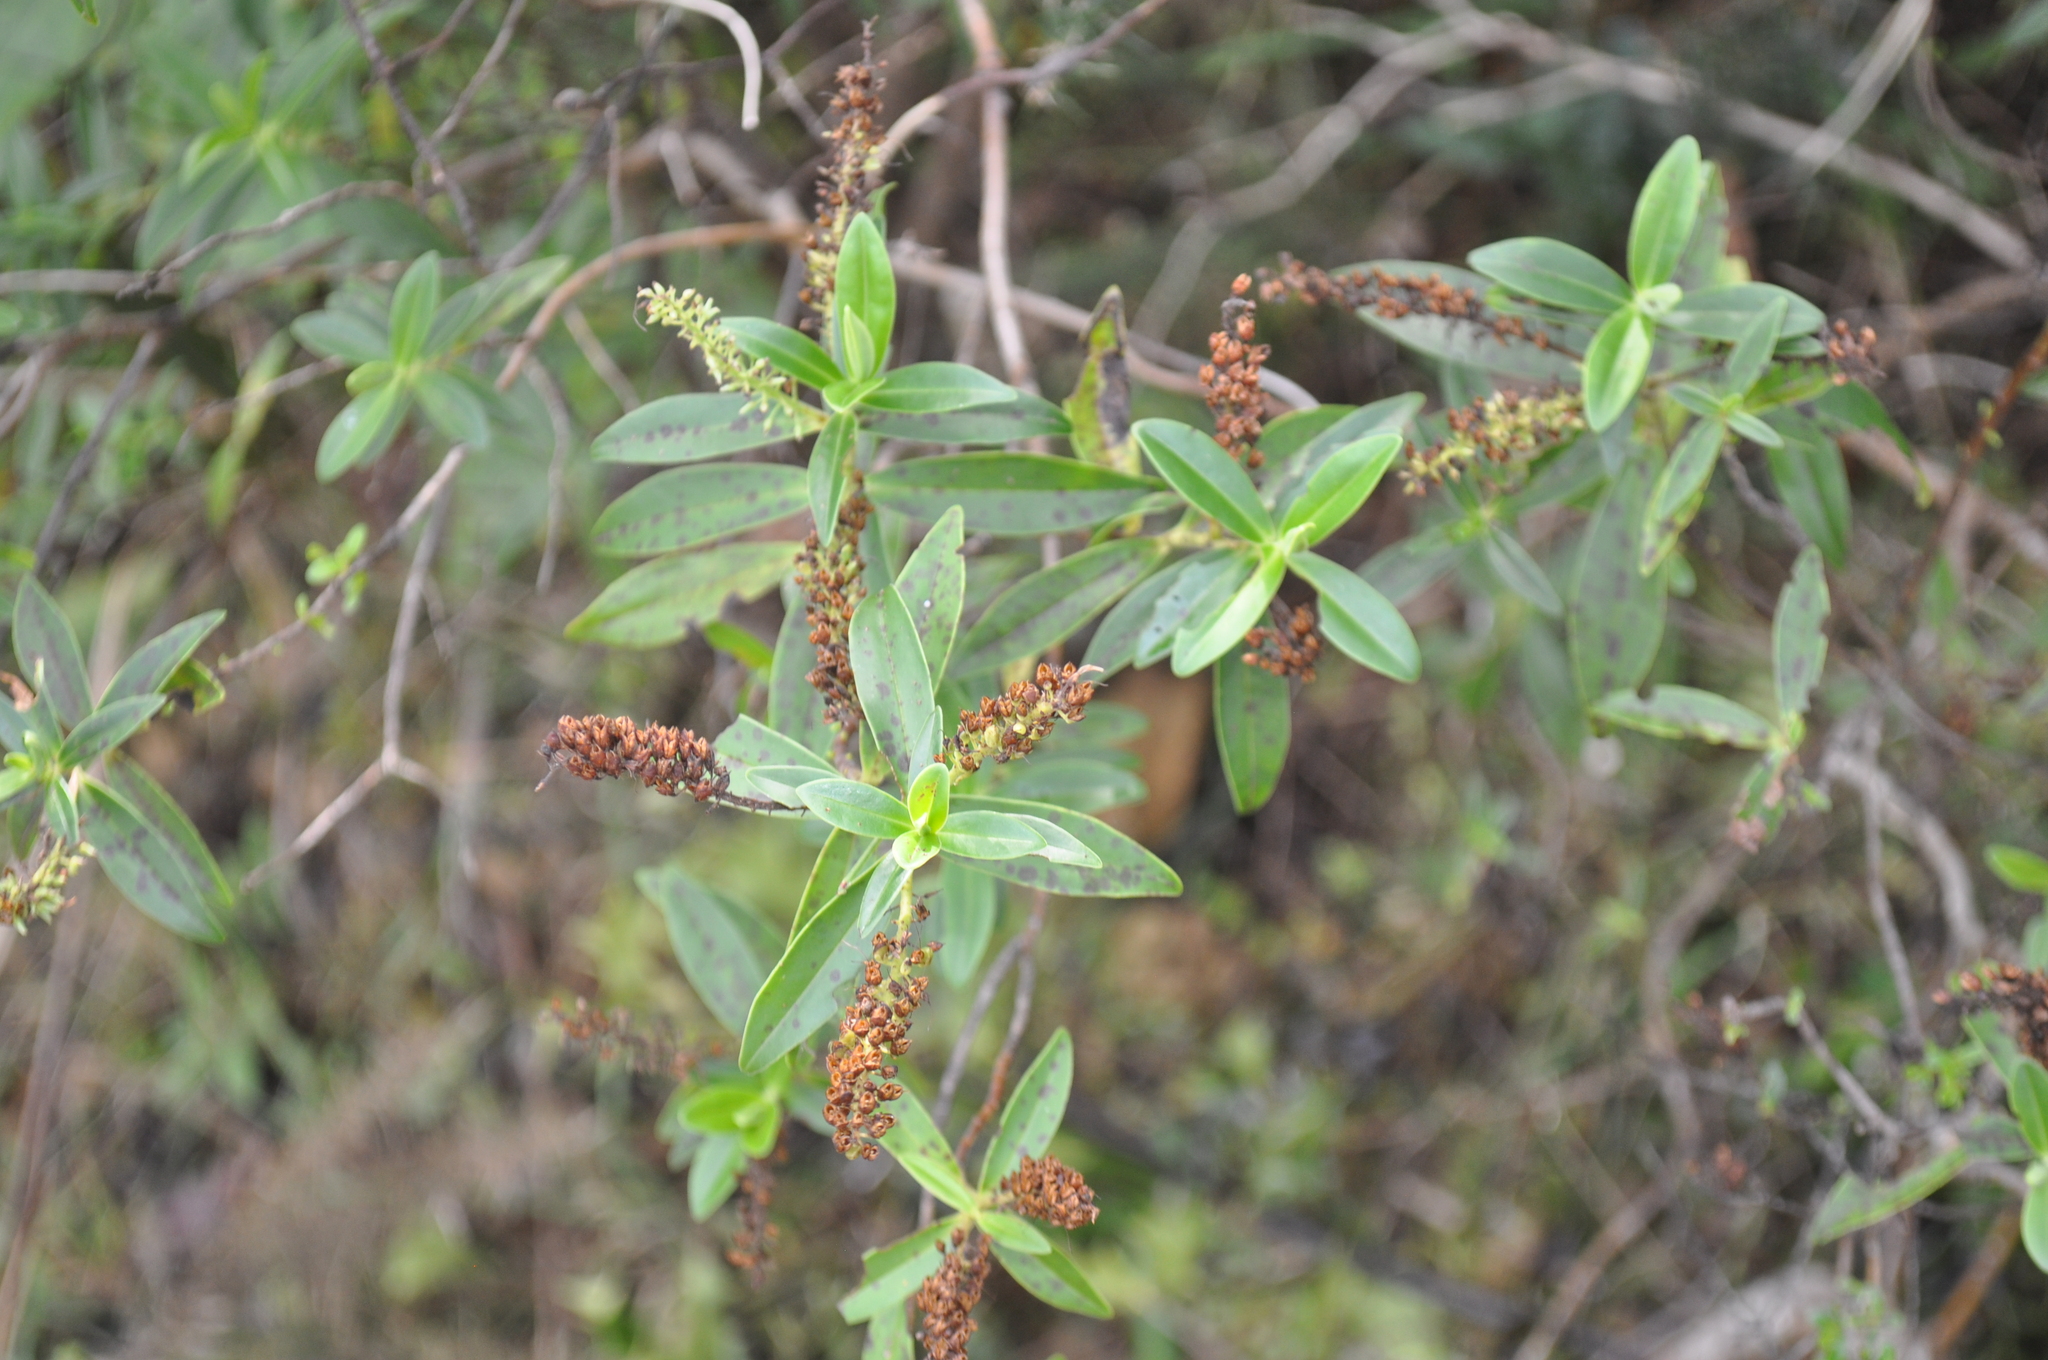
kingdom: Plantae
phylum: Tracheophyta
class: Magnoliopsida
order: Lamiales
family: Plantaginaceae
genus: Veronica
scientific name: Veronica stricta
